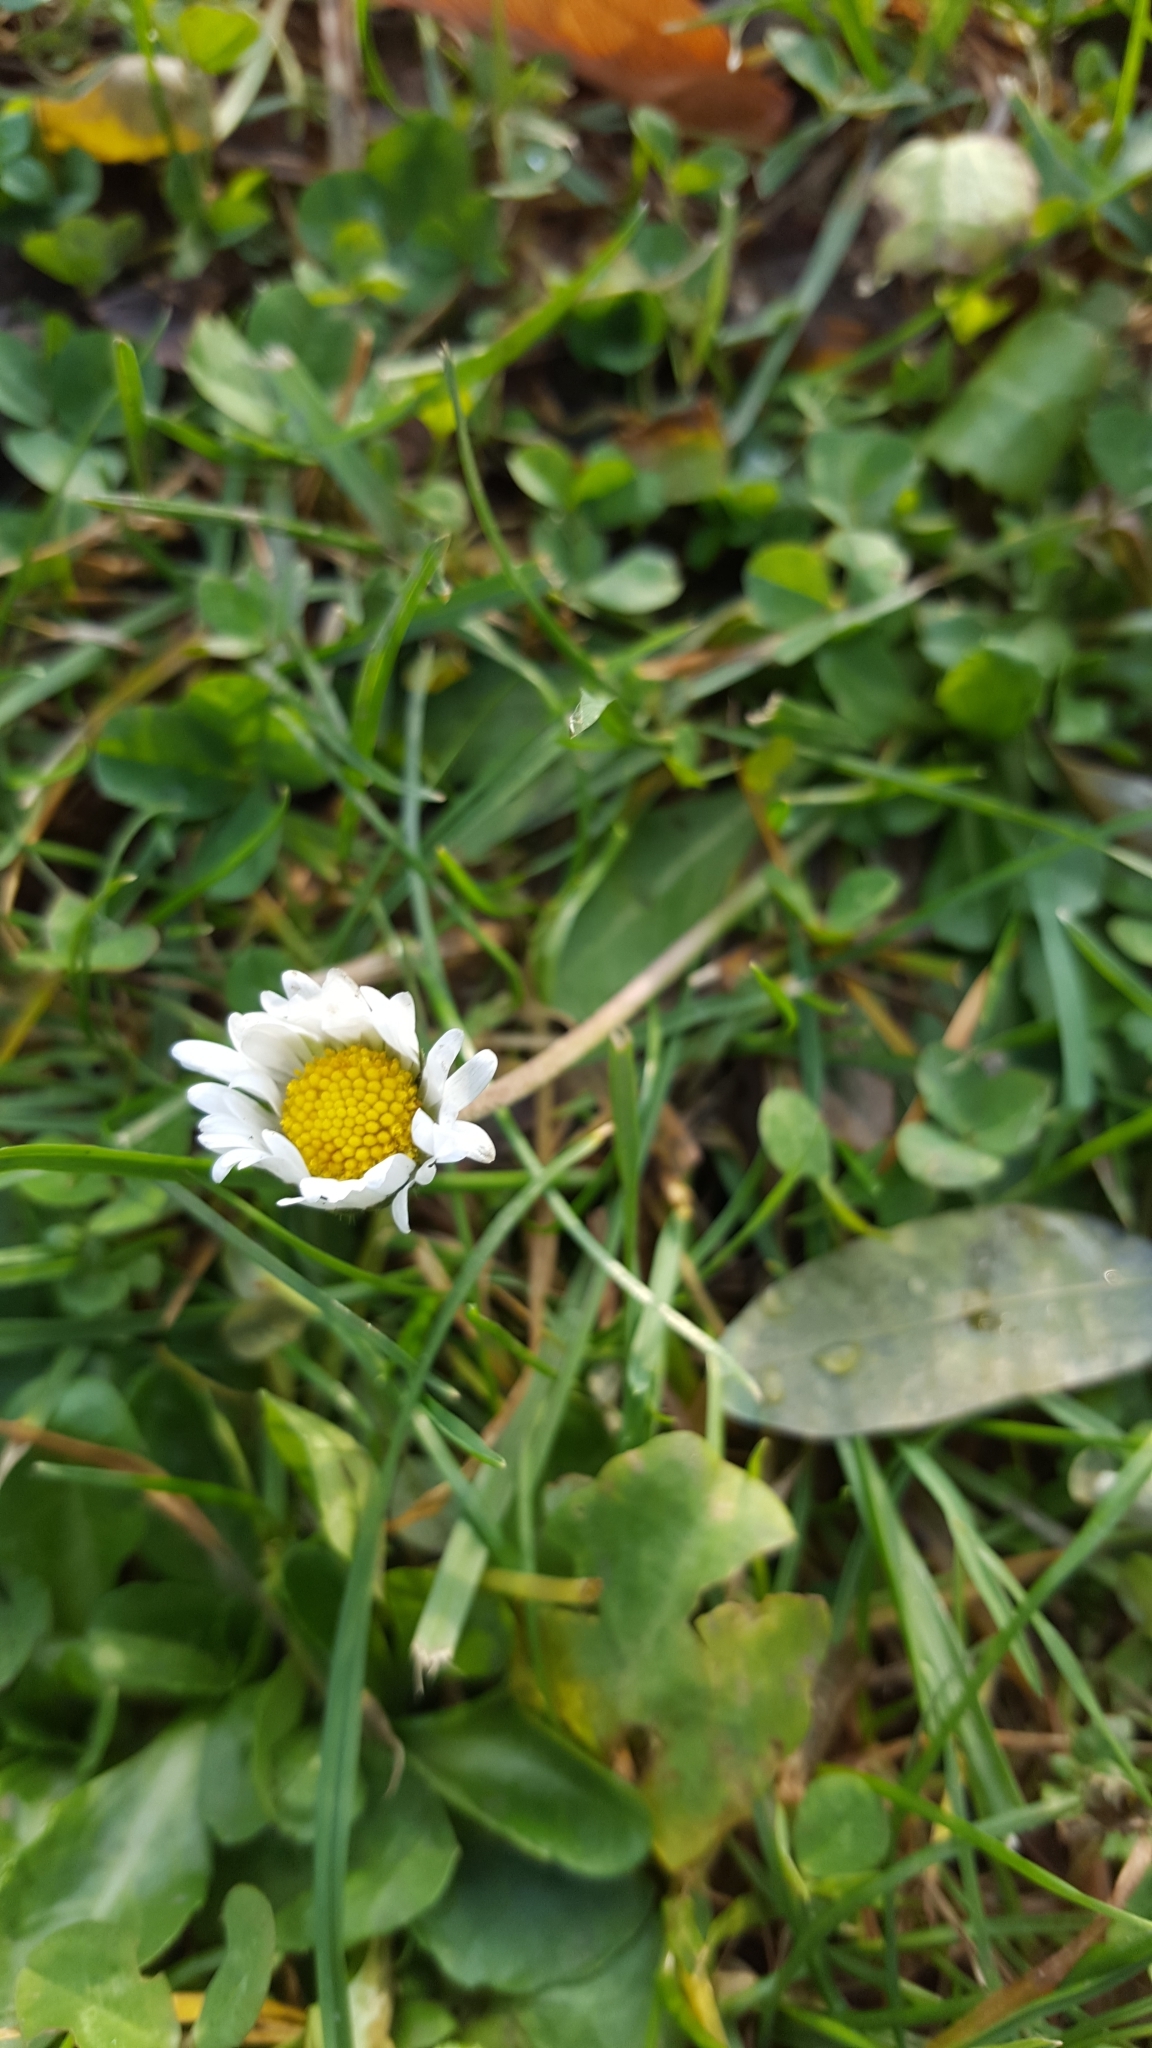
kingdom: Plantae
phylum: Tracheophyta
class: Magnoliopsida
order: Asterales
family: Asteraceae
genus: Bellis
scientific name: Bellis perennis
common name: Lawndaisy
